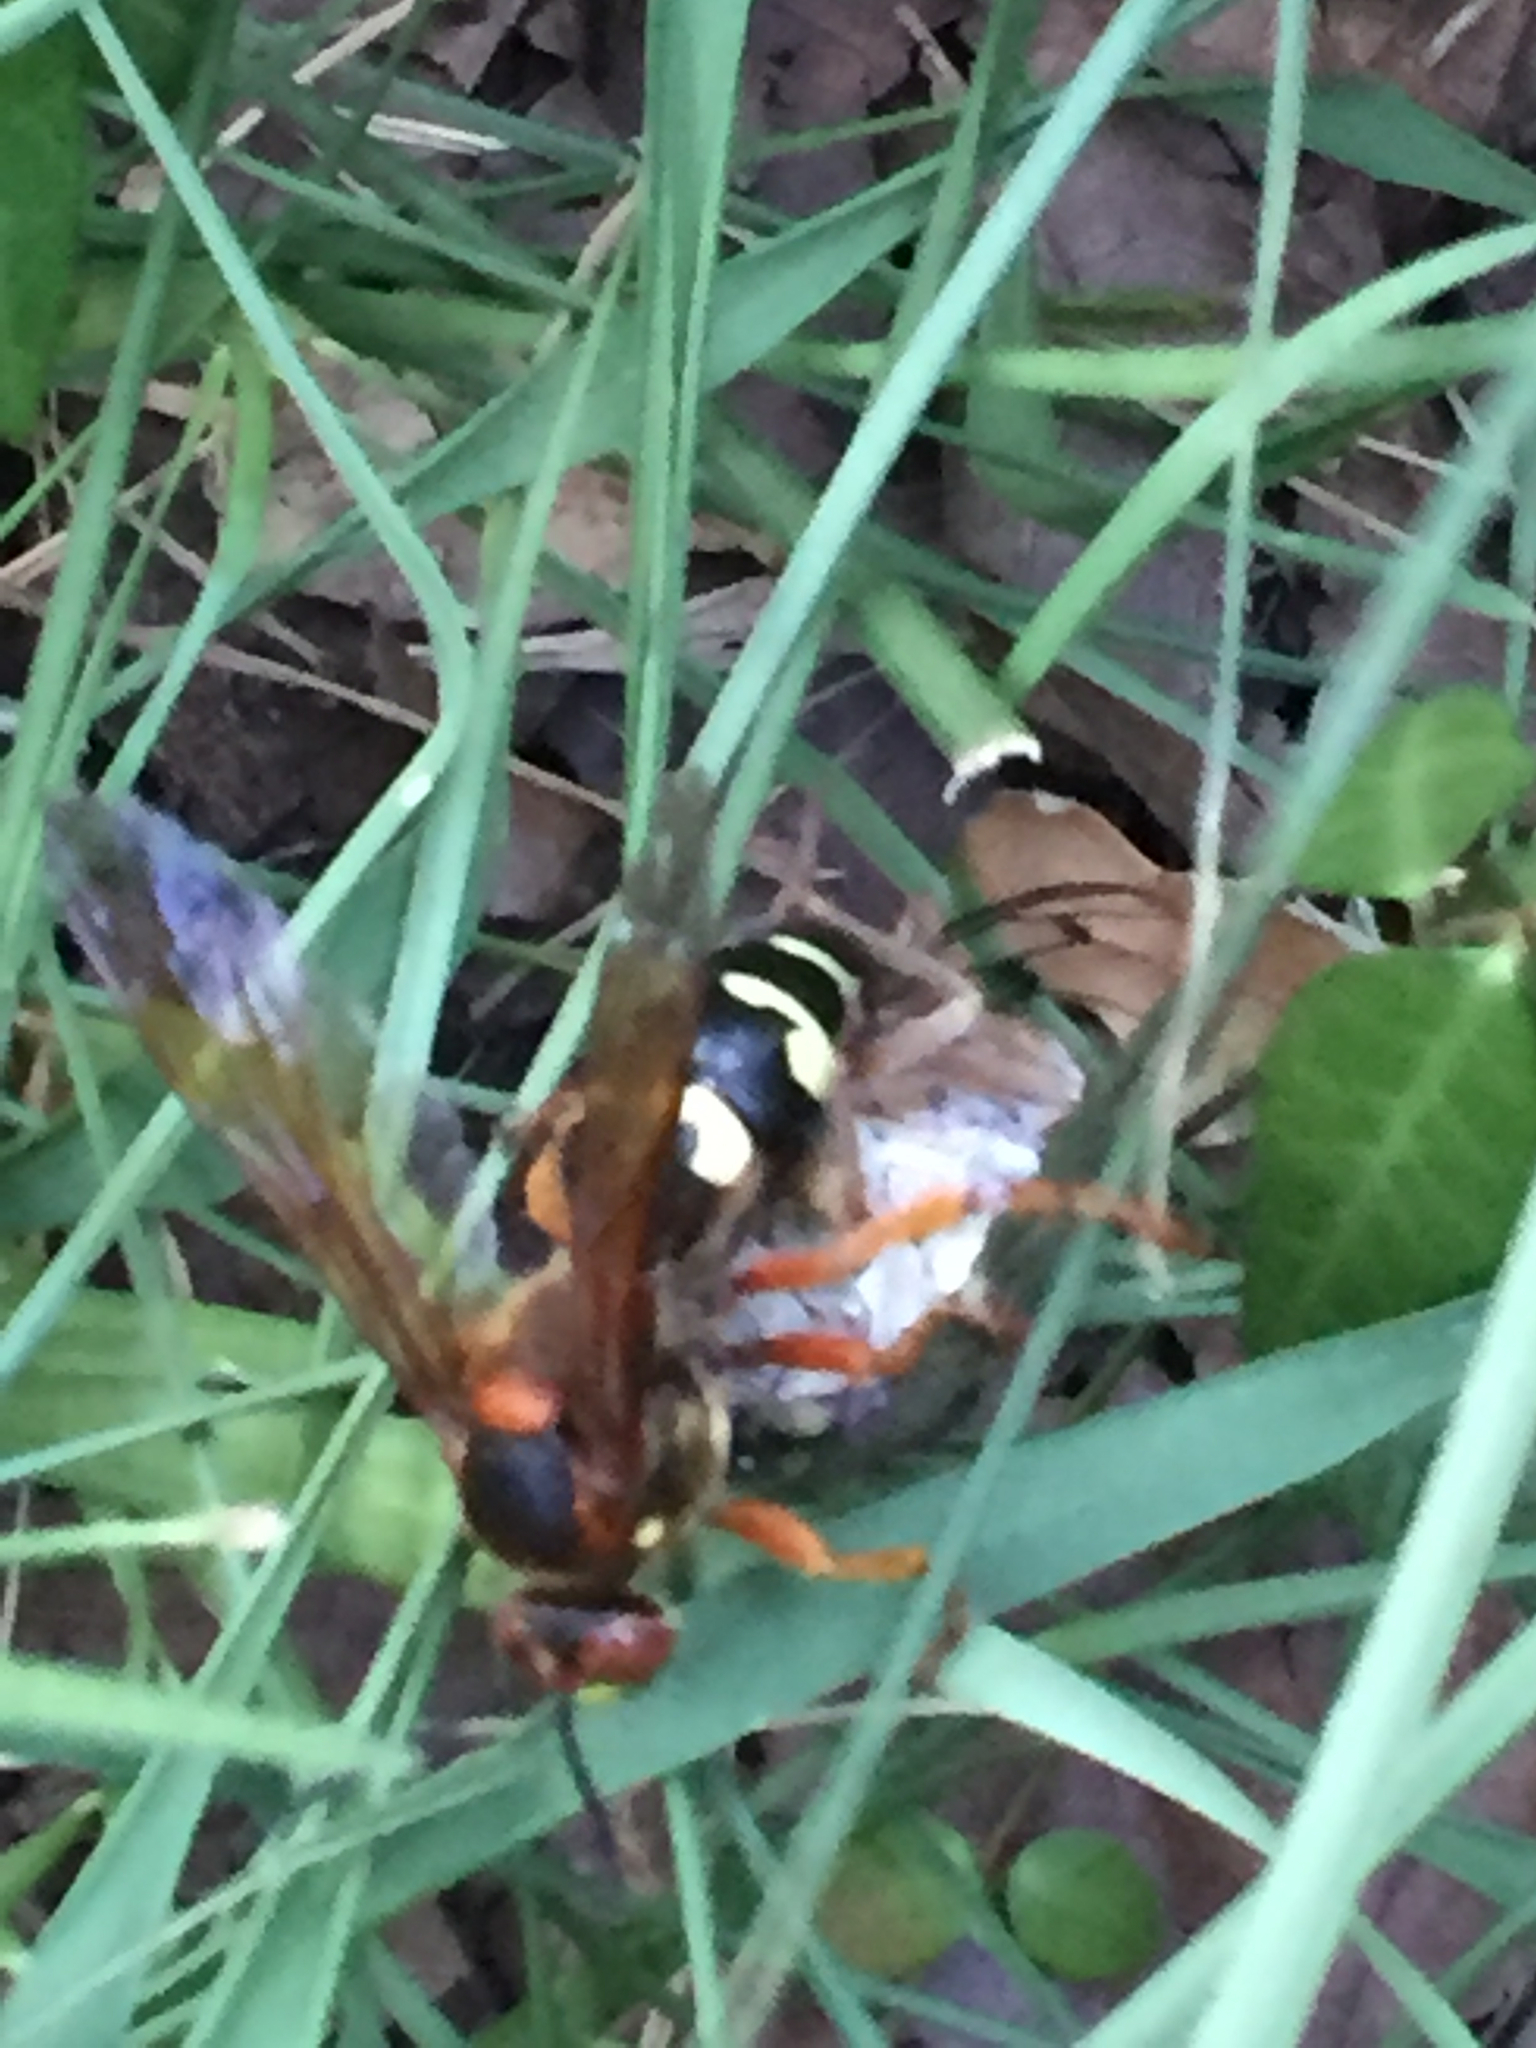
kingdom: Animalia
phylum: Arthropoda
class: Insecta
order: Hymenoptera
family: Crabronidae
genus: Sphecius
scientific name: Sphecius speciosus
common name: Cicada killer
